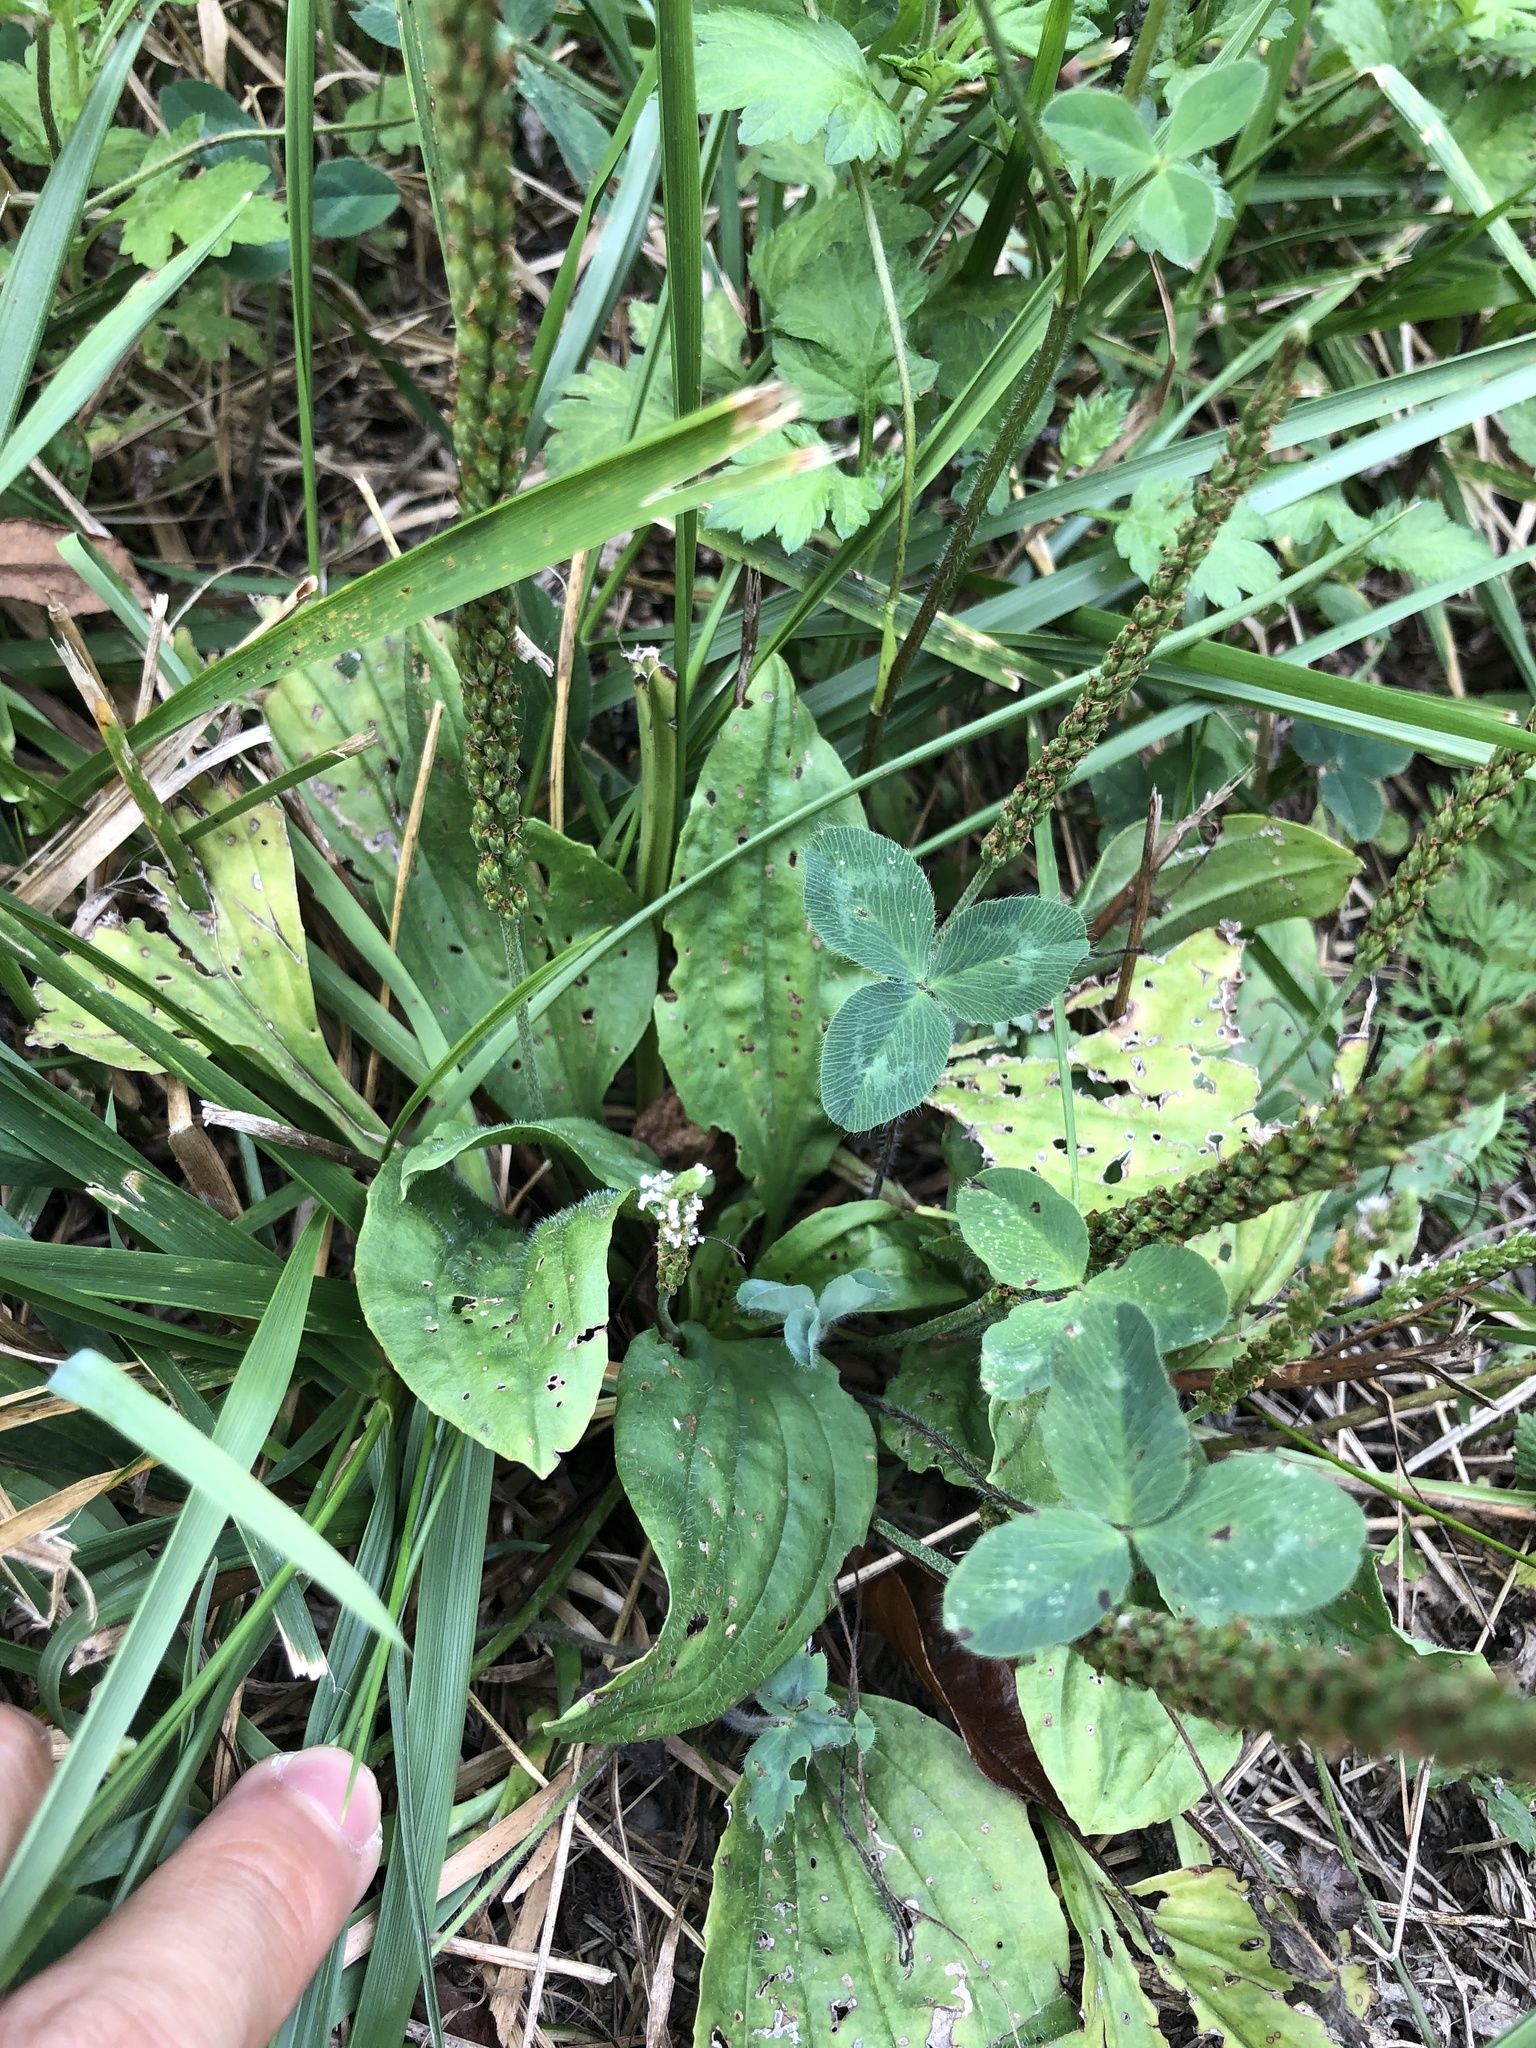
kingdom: Plantae
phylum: Tracheophyta
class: Magnoliopsida
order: Lamiales
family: Plantaginaceae
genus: Plantago
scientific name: Plantago major
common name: Common plantain
